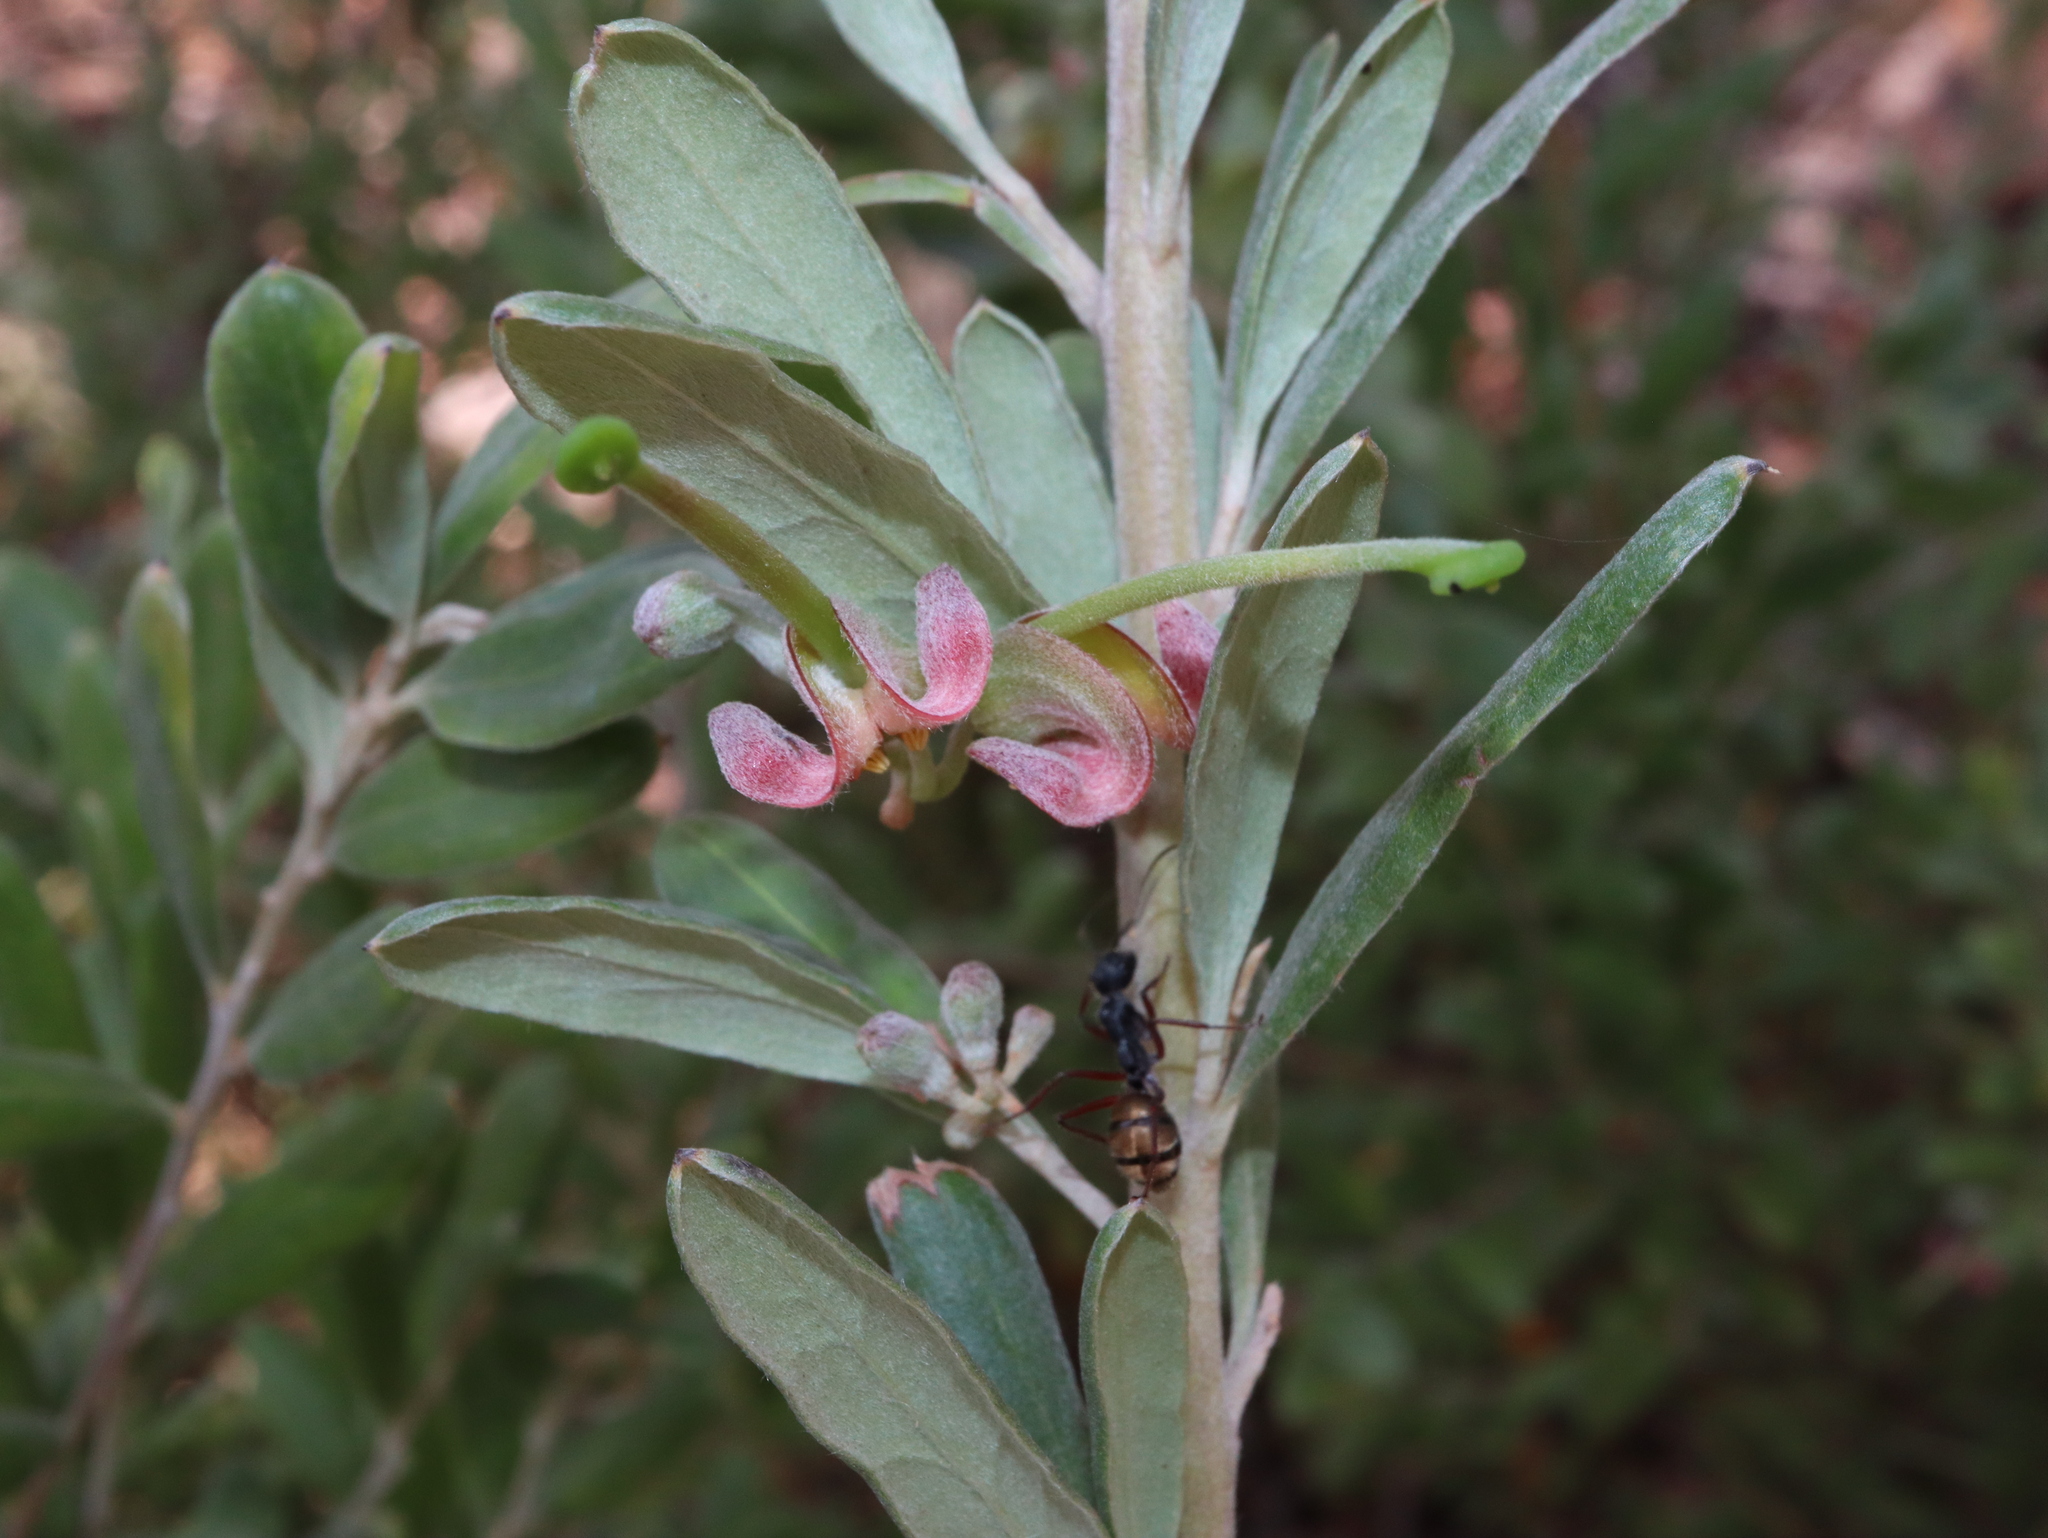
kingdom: Animalia
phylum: Arthropoda
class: Insecta
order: Hymenoptera
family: Formicidae
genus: Camponotus
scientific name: Camponotus suffusus
